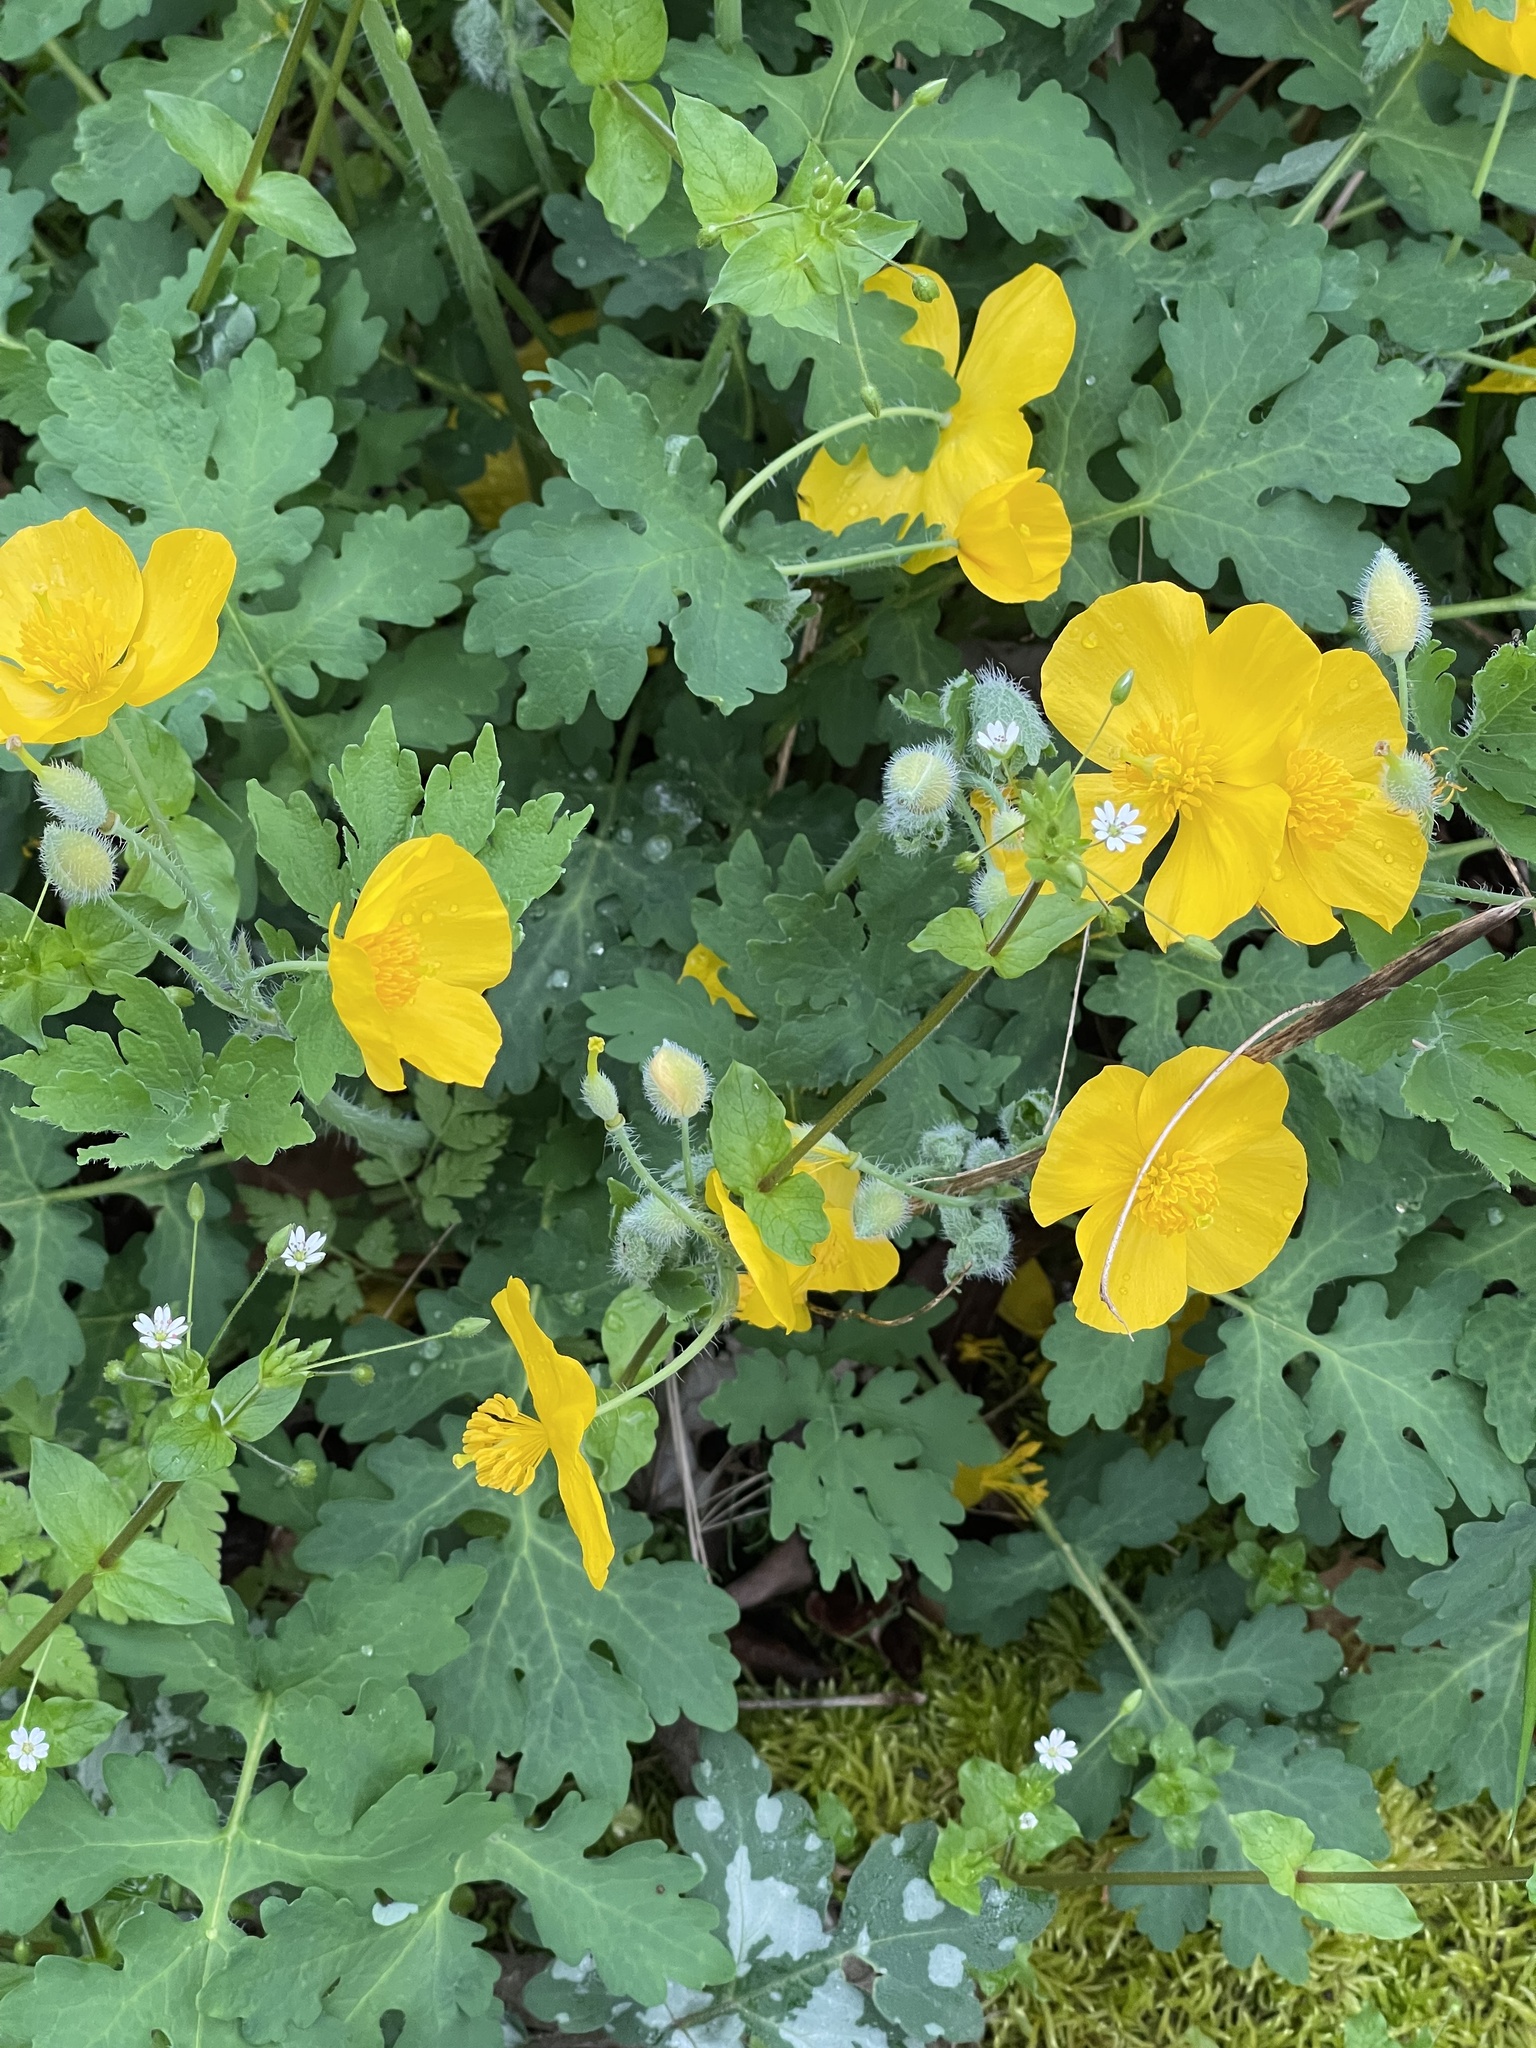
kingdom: Plantae
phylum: Tracheophyta
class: Magnoliopsida
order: Ranunculales
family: Papaveraceae
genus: Stylophorum
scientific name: Stylophorum diphyllum
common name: Celandine poppy
